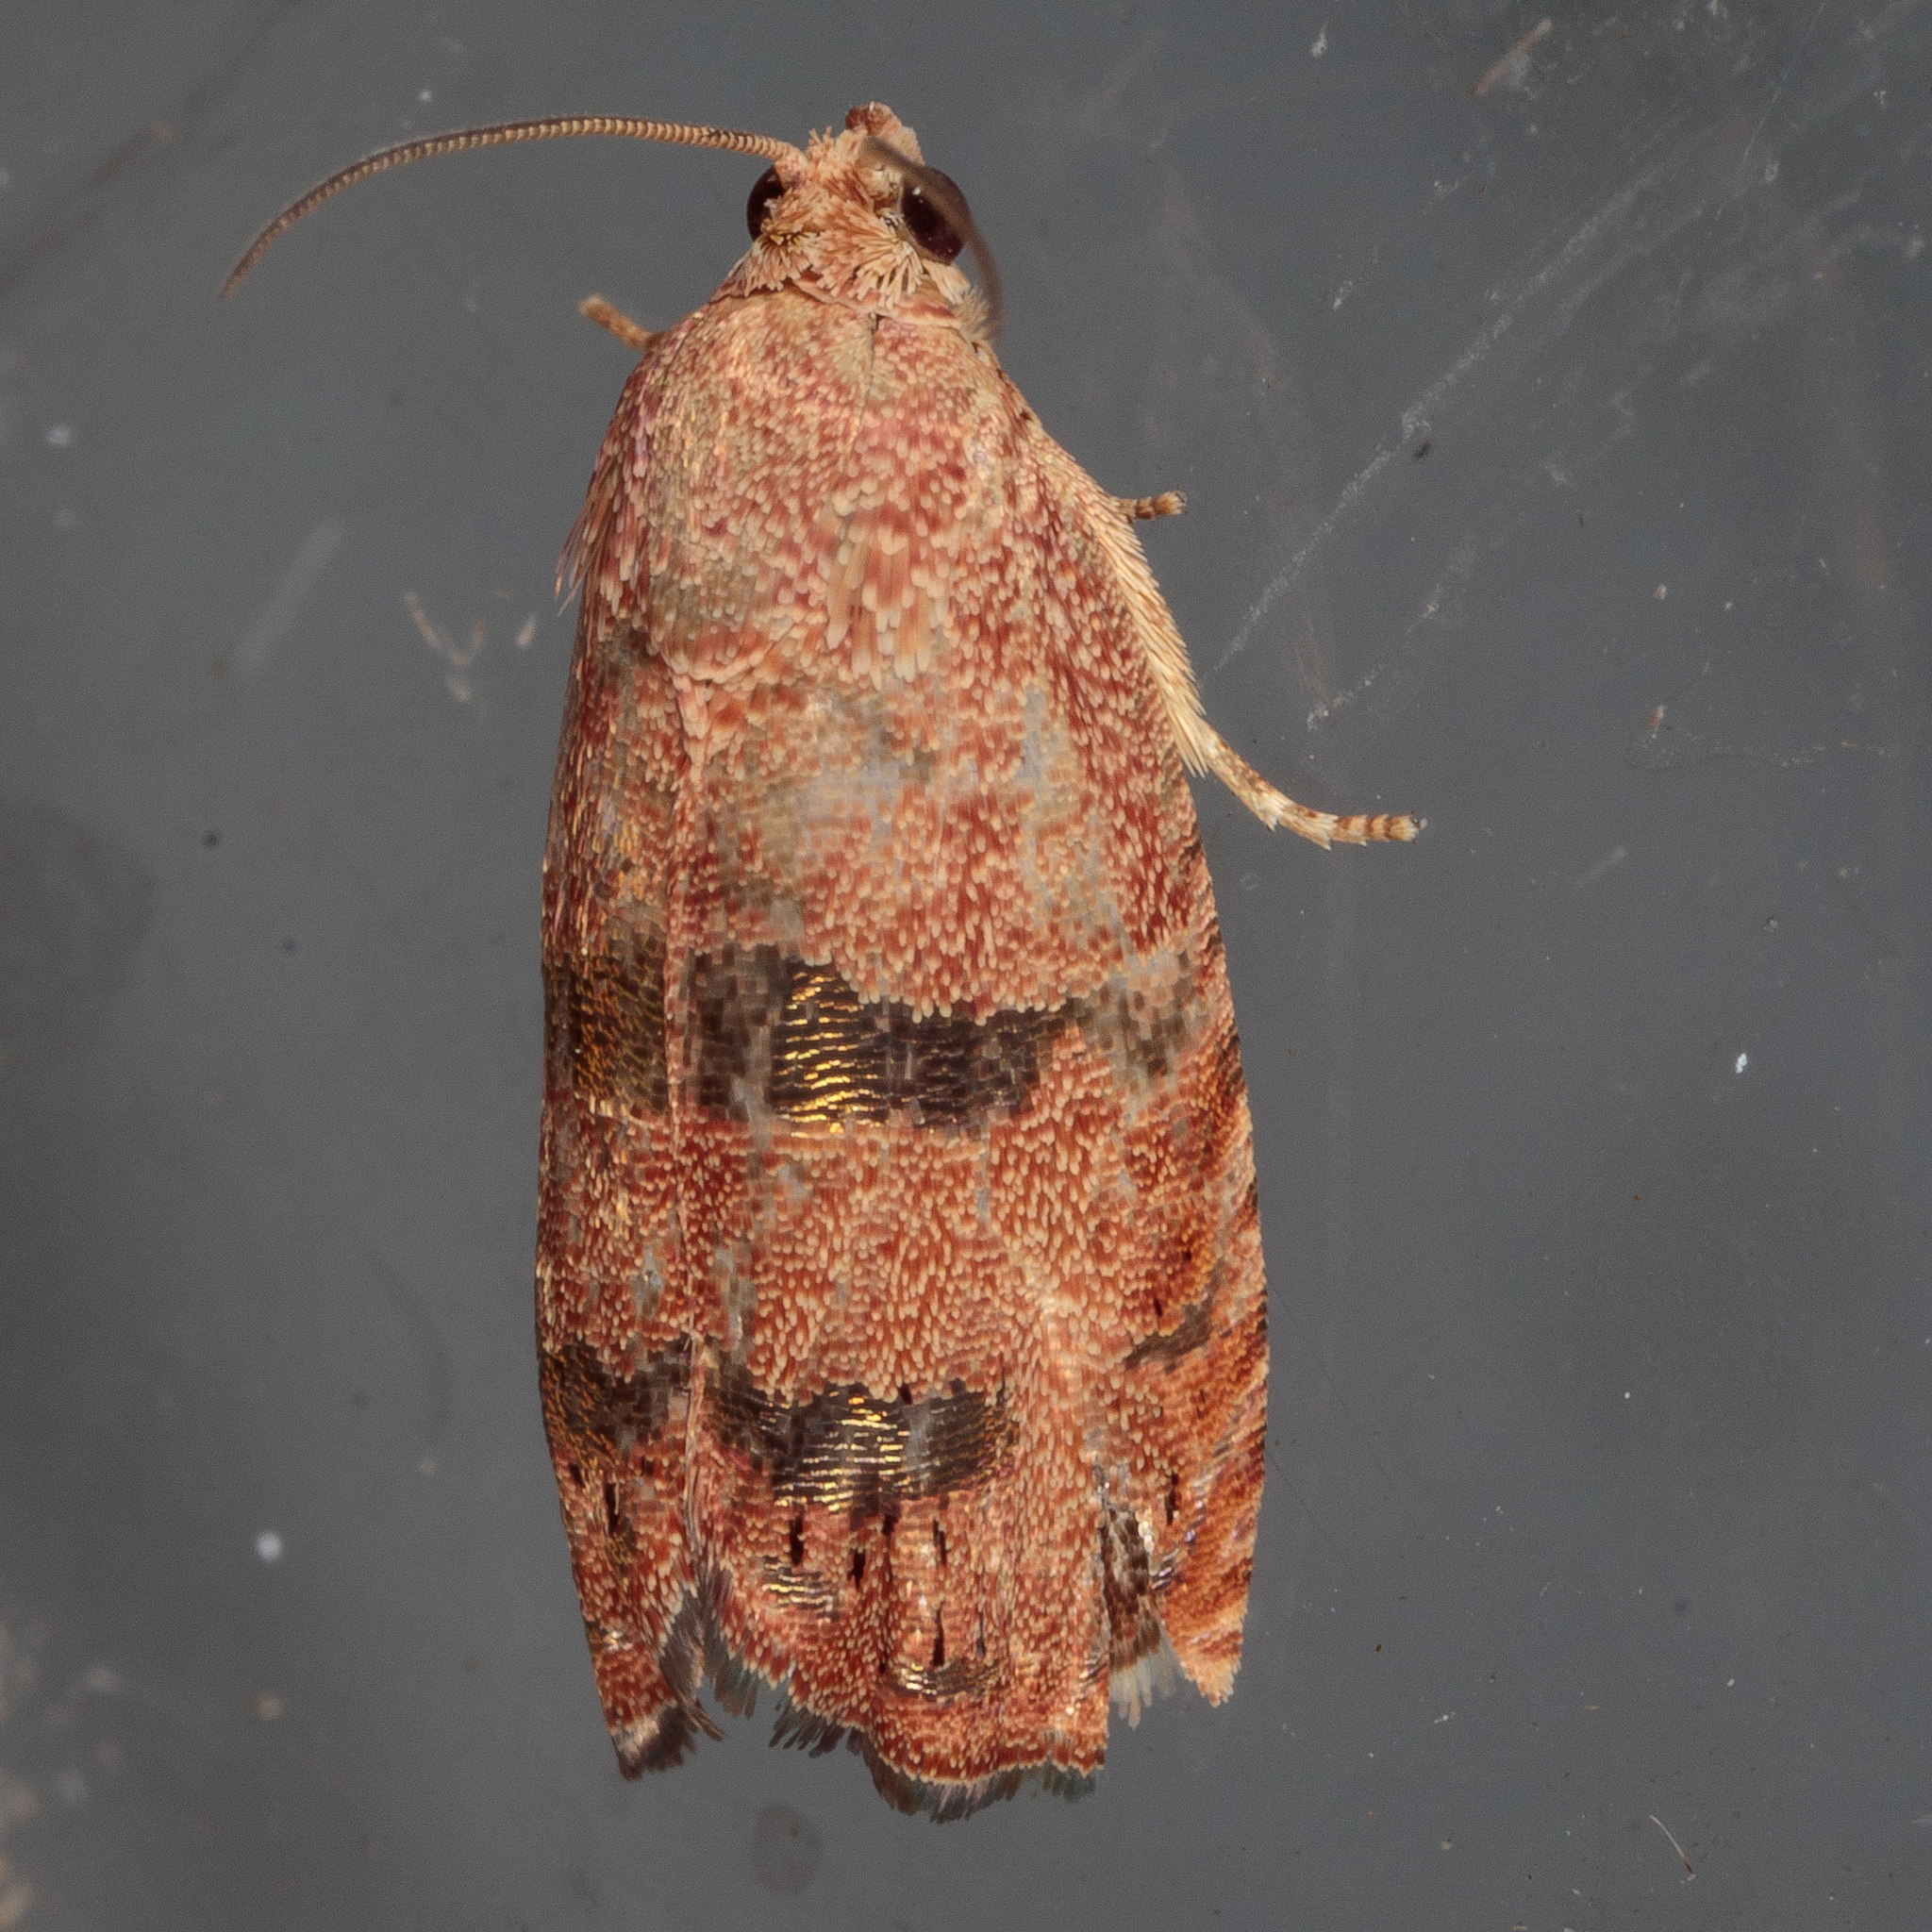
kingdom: Animalia
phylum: Arthropoda
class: Insecta
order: Lepidoptera
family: Tortricidae
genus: Cydia
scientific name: Cydia latiferreana
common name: Filbertworm moth
